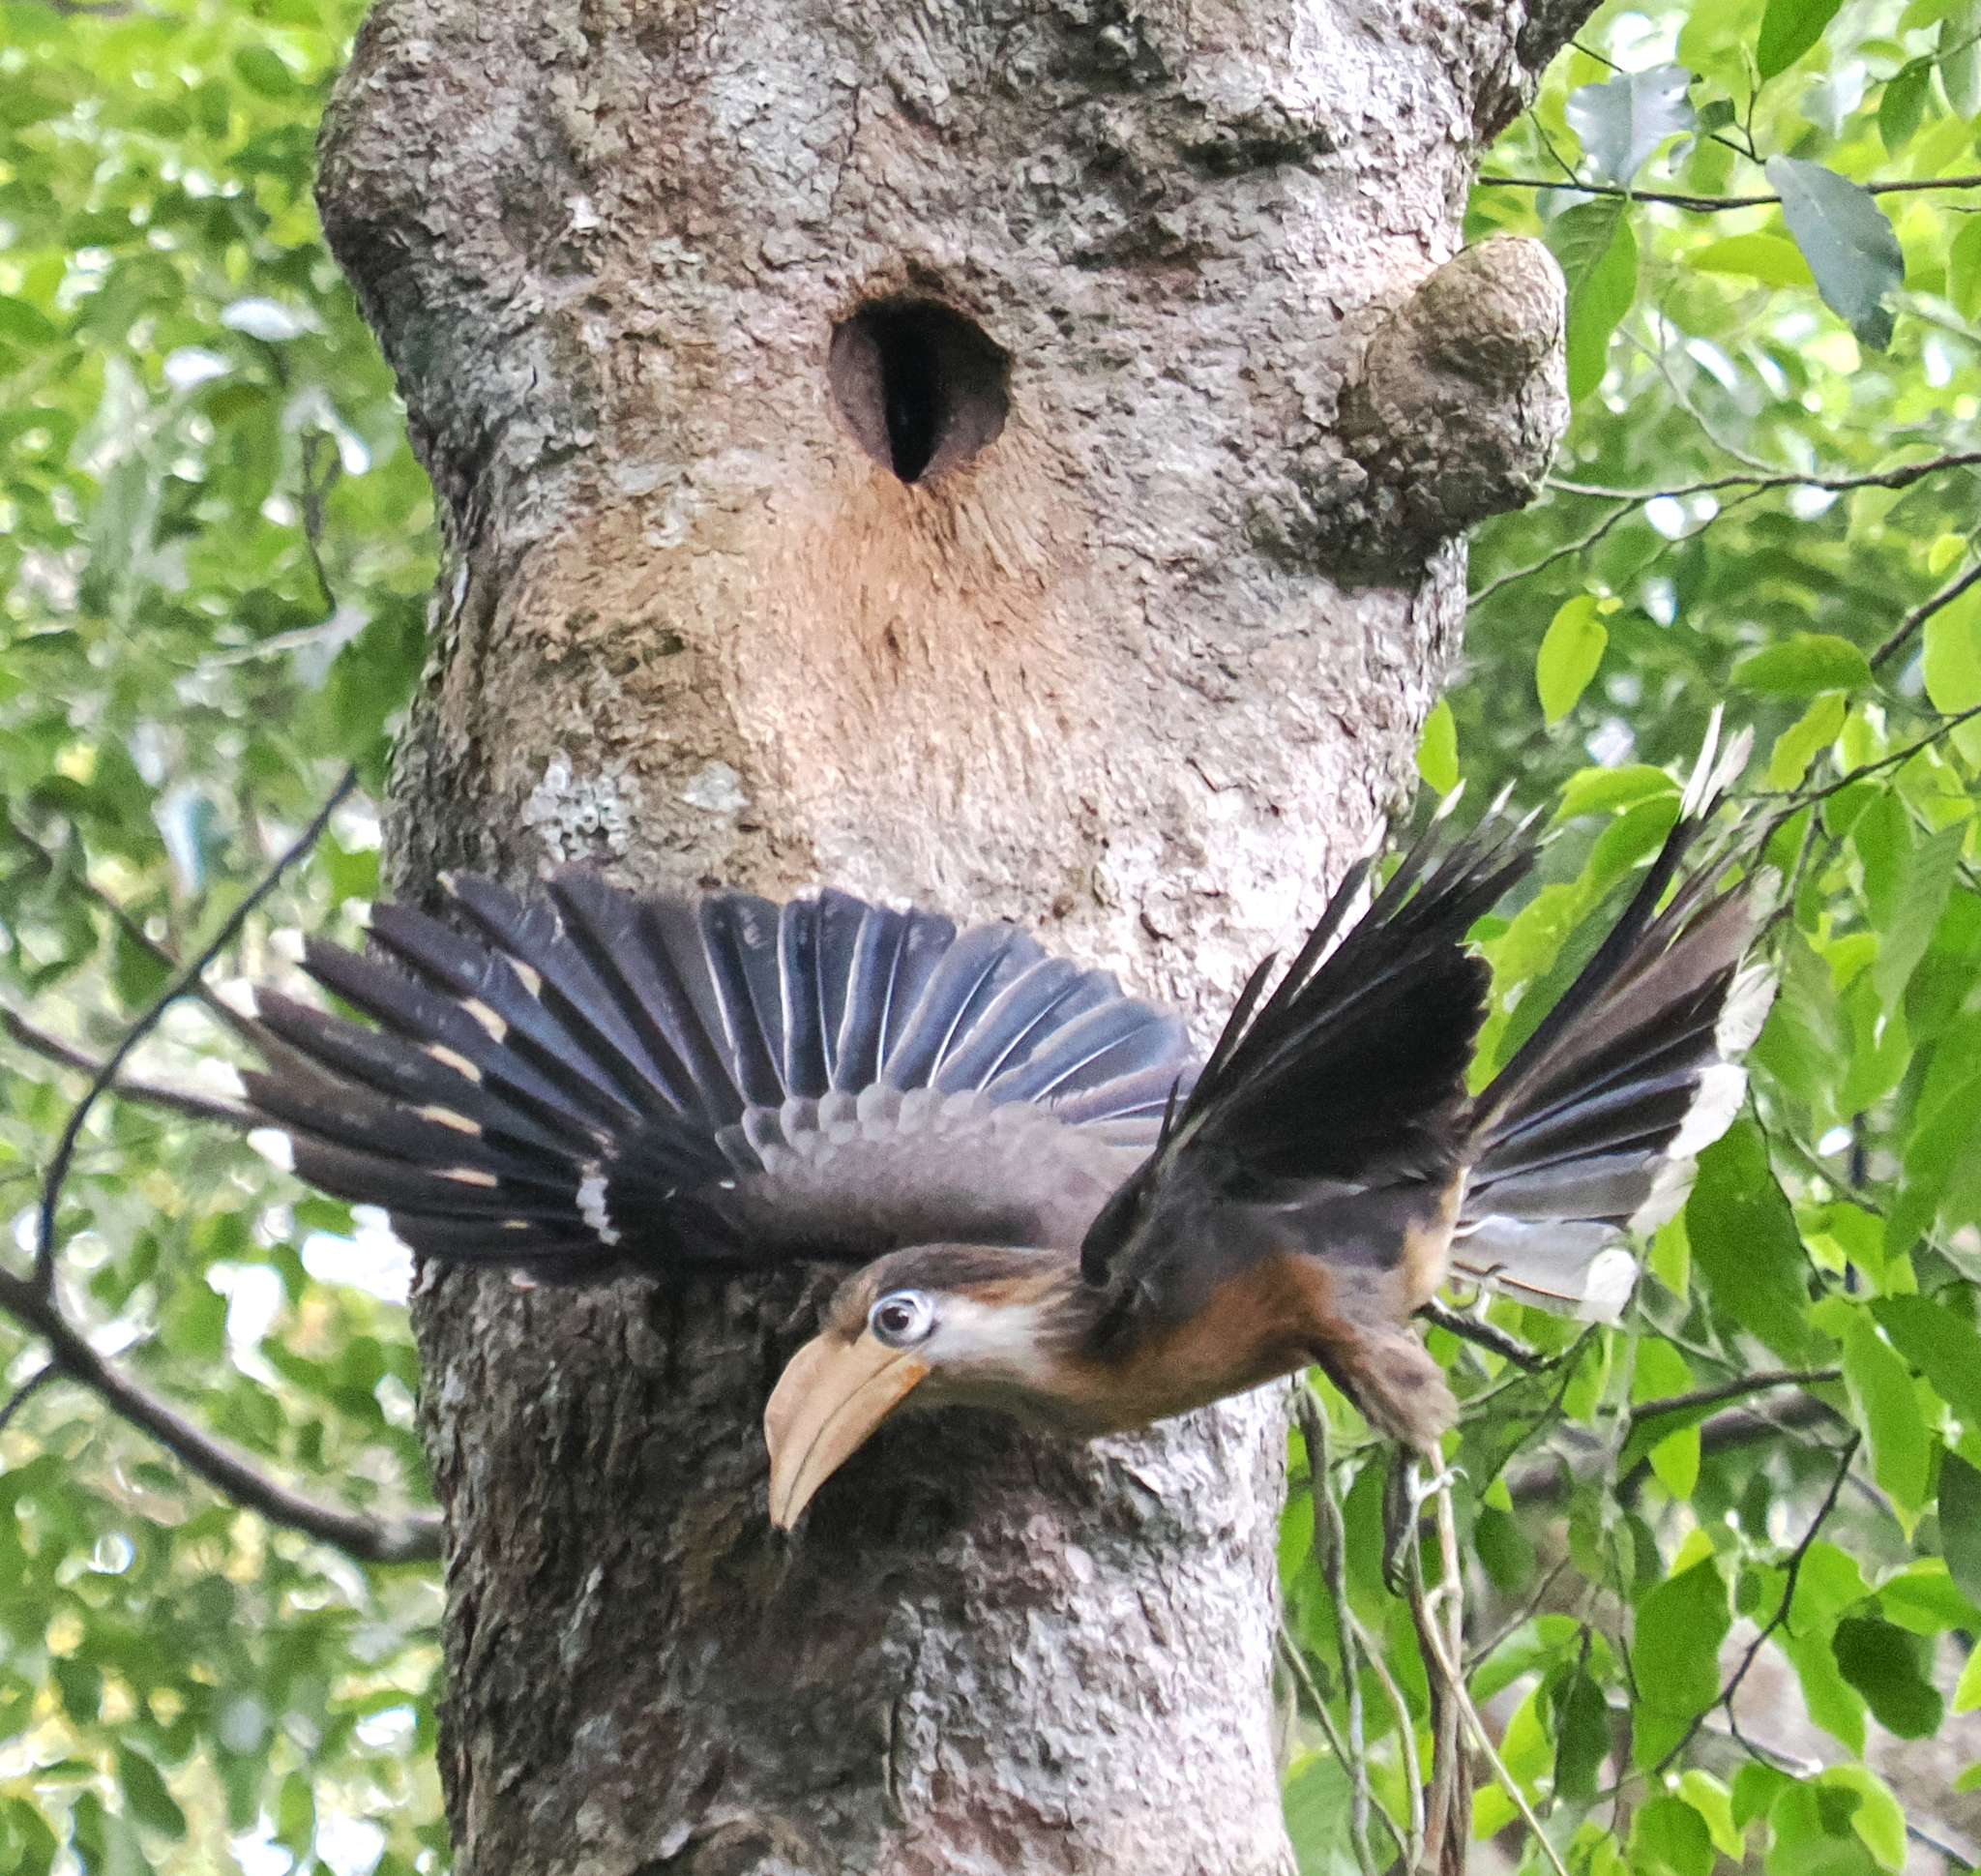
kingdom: Animalia
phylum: Chordata
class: Aves
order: Bucerotiformes
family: Bucerotidae
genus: Anorrhinus
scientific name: Anorrhinus austeni
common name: Austen's brown hornbill
